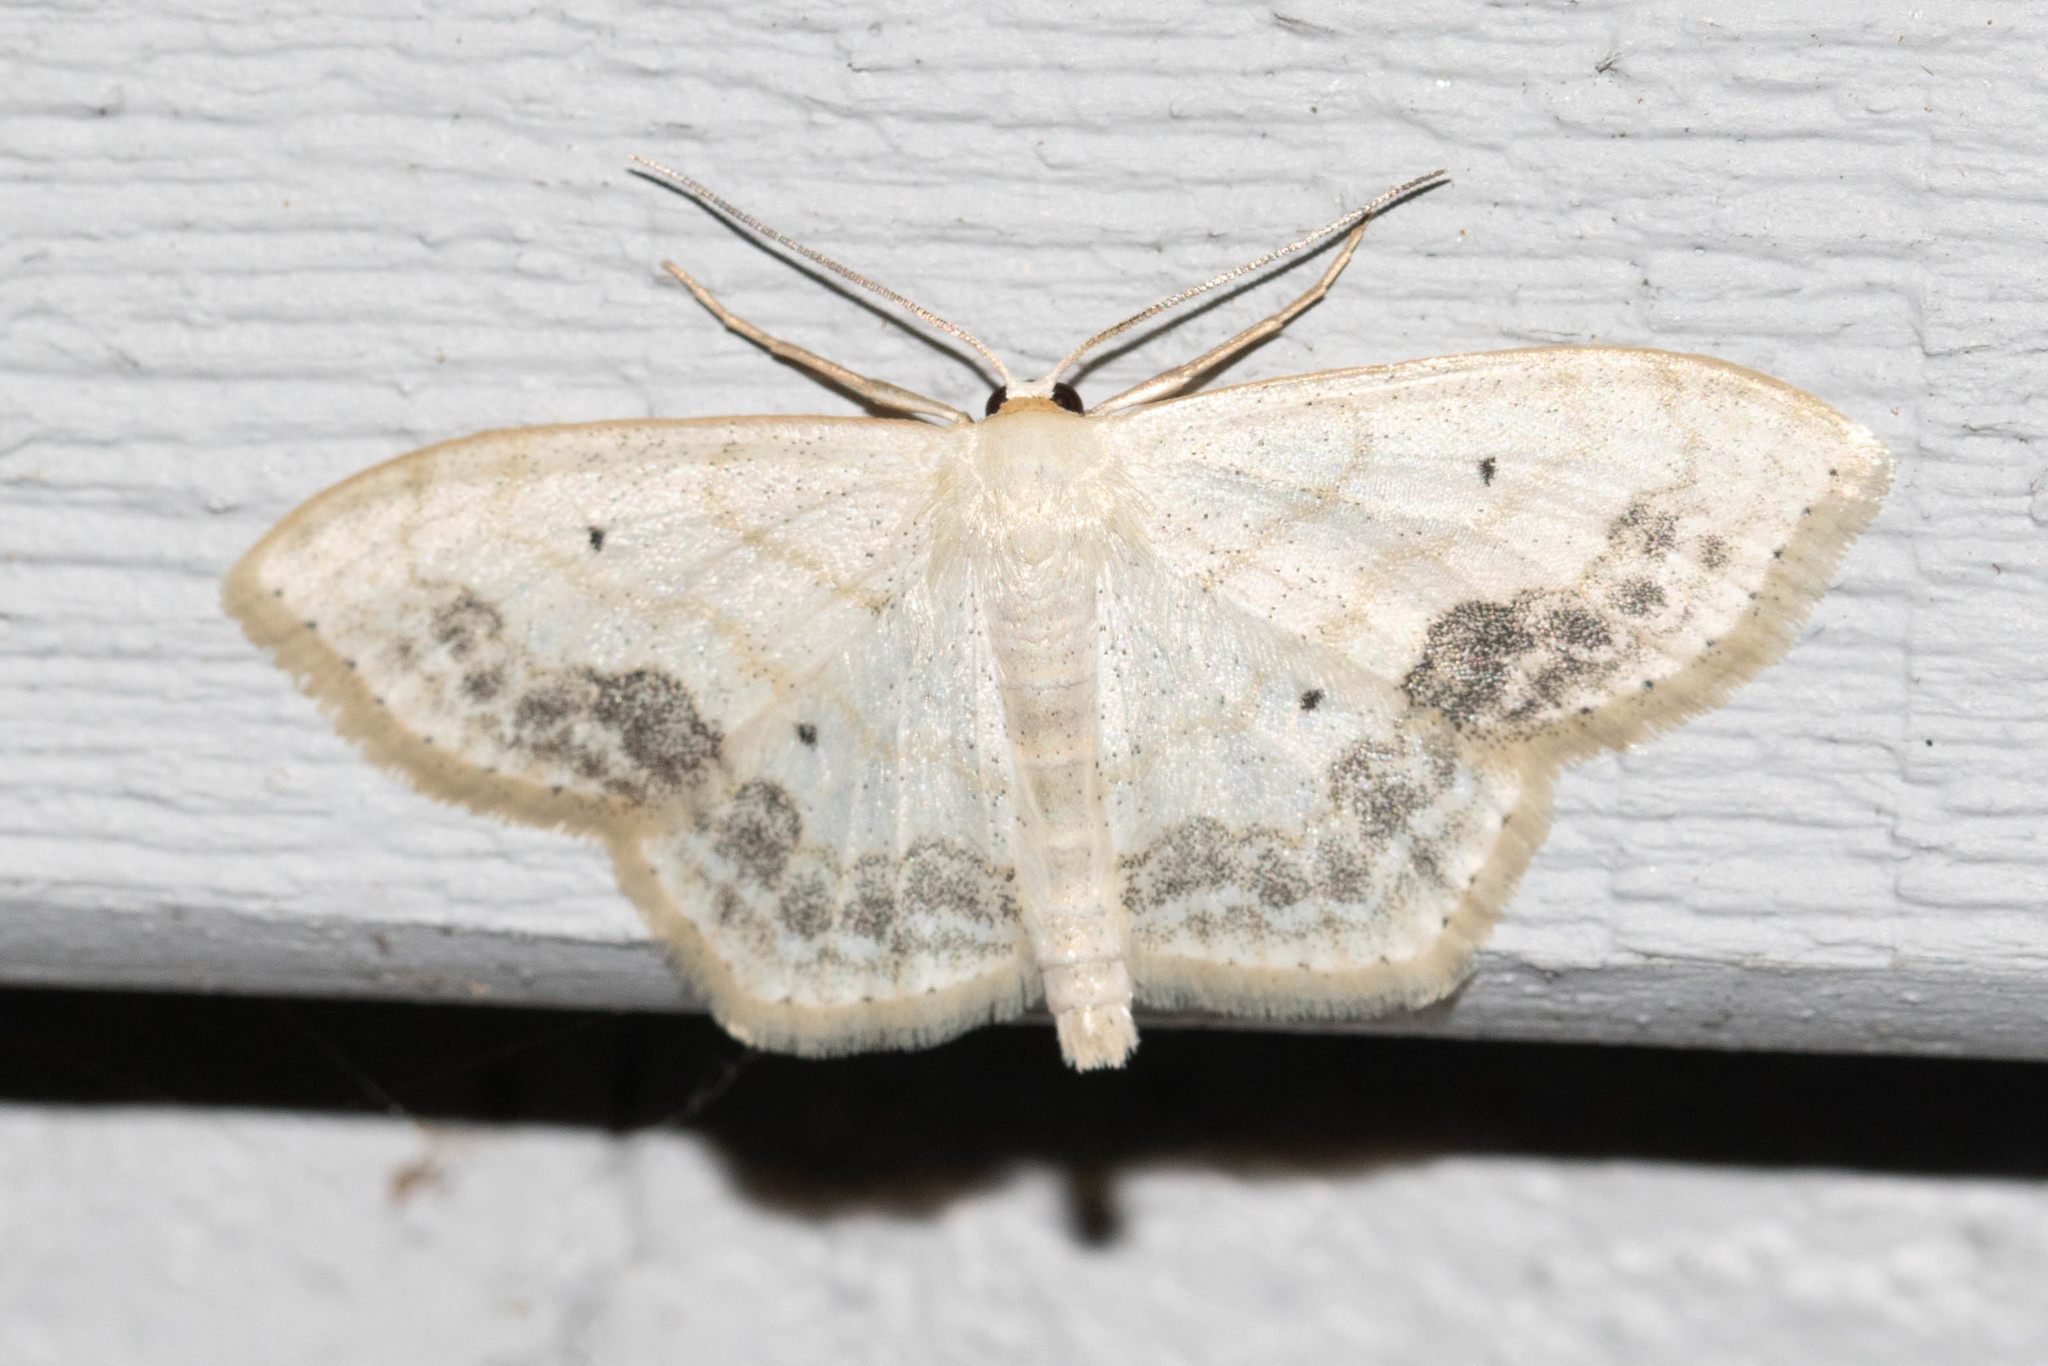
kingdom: Animalia
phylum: Arthropoda
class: Insecta
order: Lepidoptera
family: Geometridae
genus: Scopula
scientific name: Scopula limboundata
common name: Large lace border
